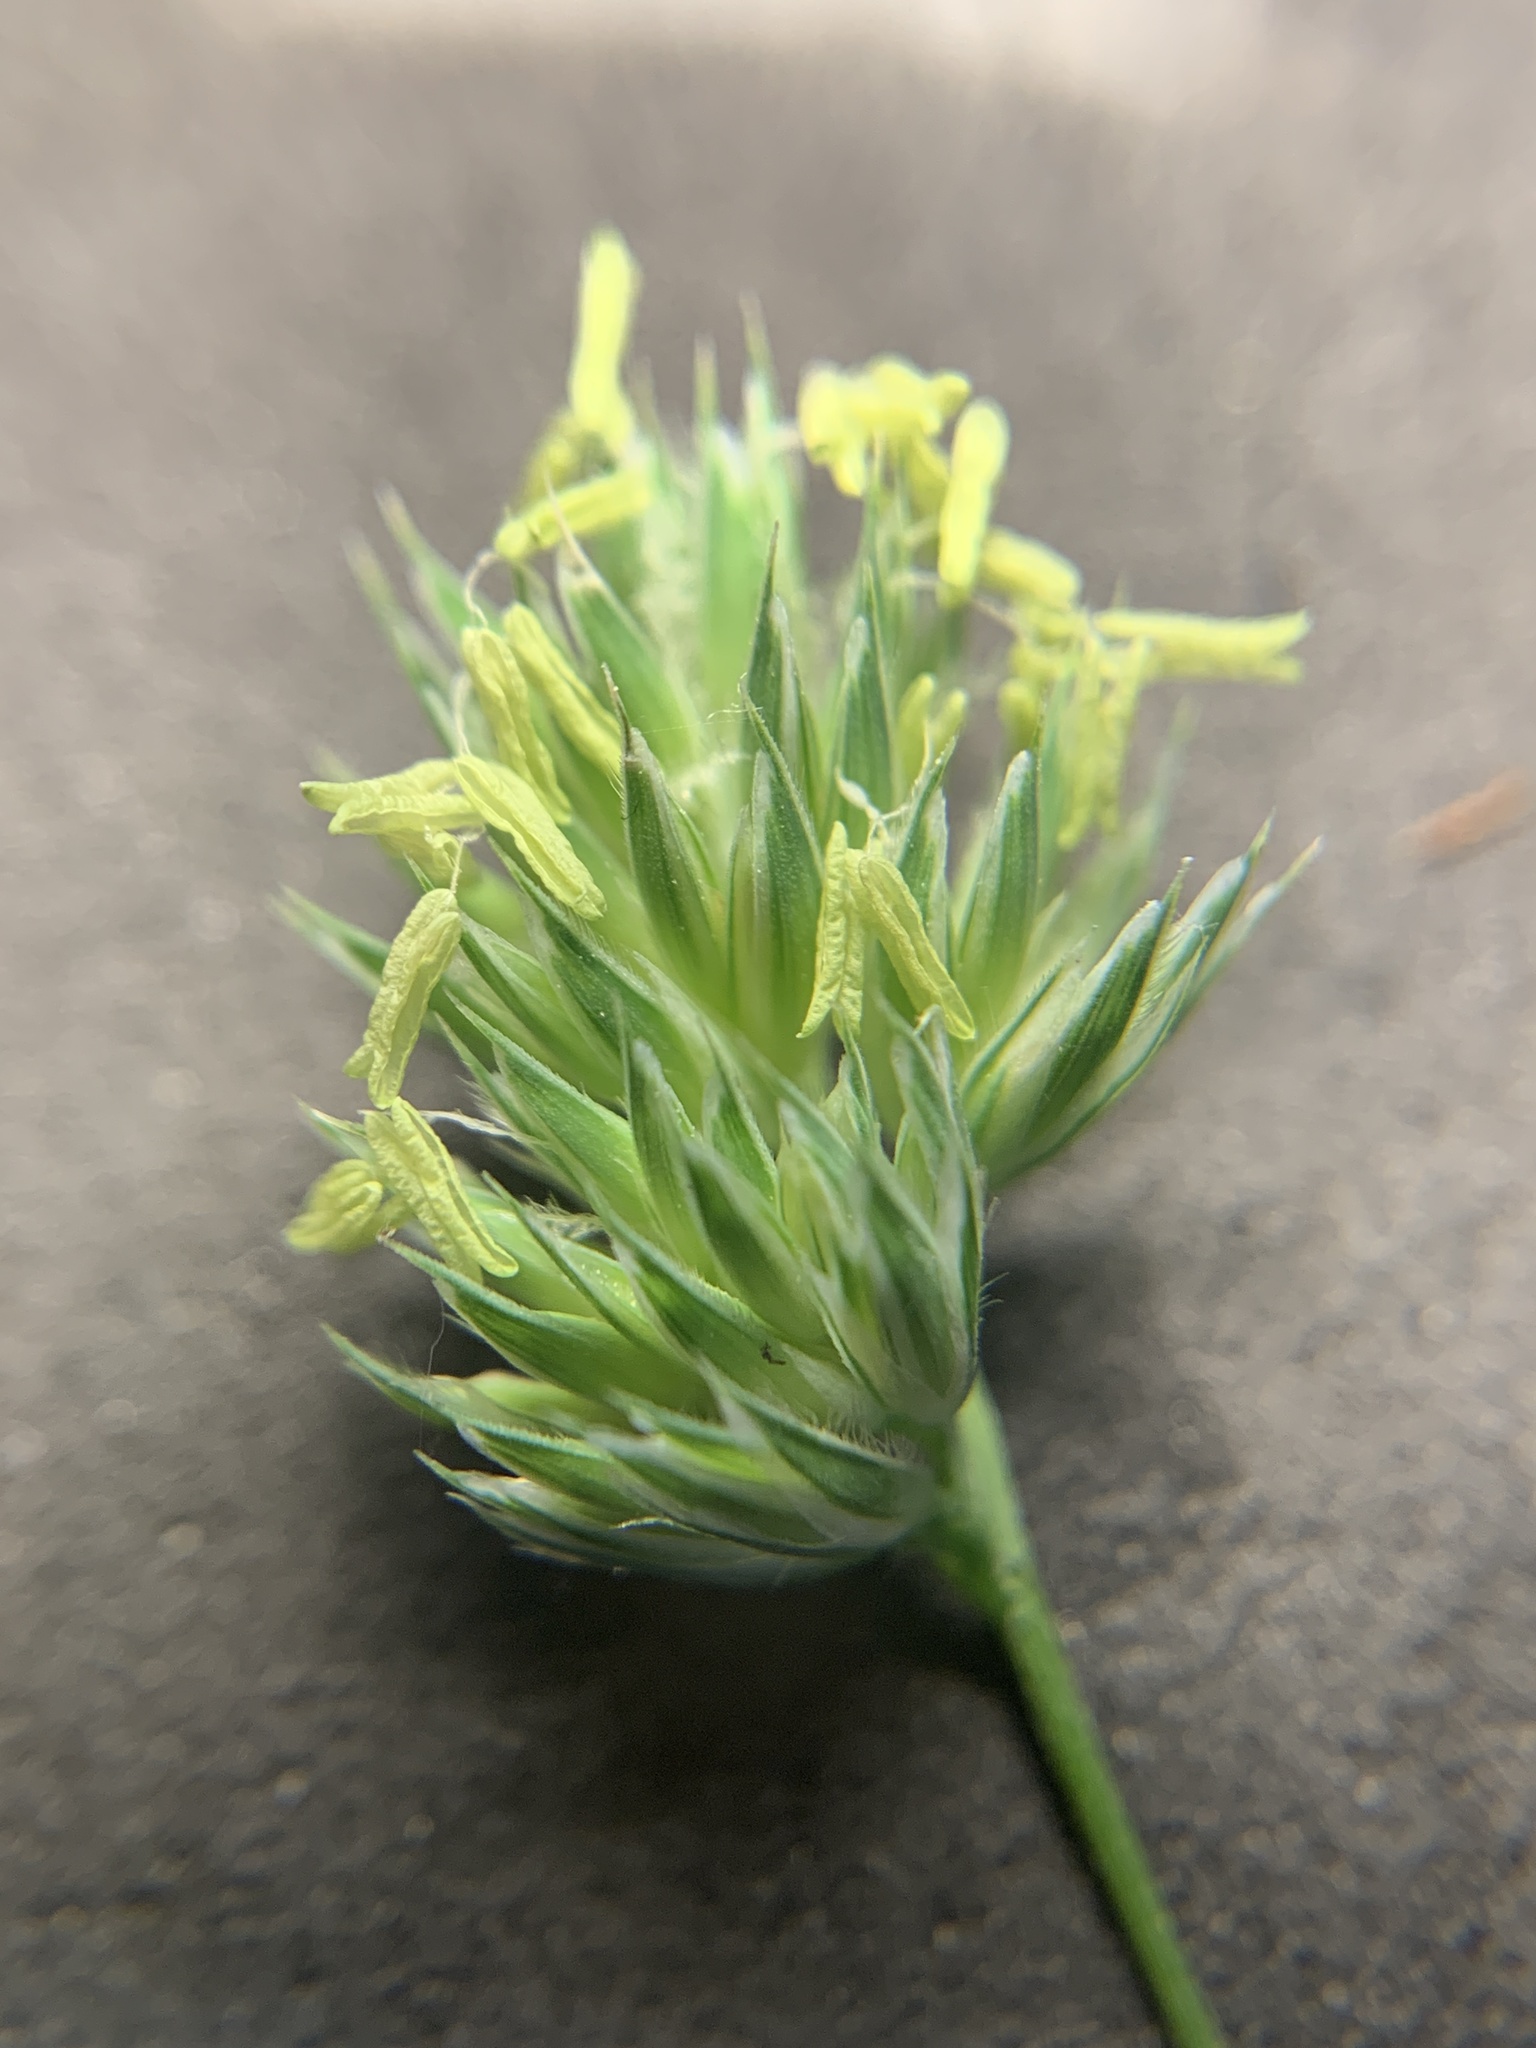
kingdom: Plantae
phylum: Tracheophyta
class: Liliopsida
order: Poales
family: Poaceae
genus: Dactylis
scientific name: Dactylis glomerata
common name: Orchardgrass
